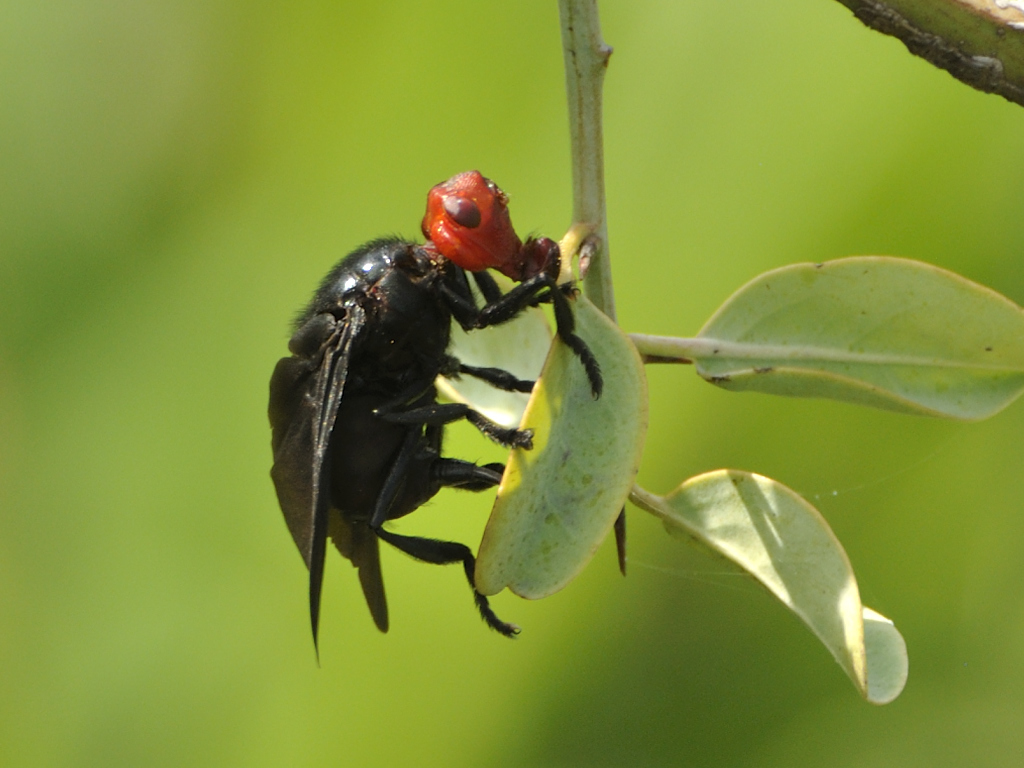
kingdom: Animalia
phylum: Arthropoda
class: Insecta
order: Diptera
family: Platystomatidae
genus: Bromophila
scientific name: Bromophila caffra
